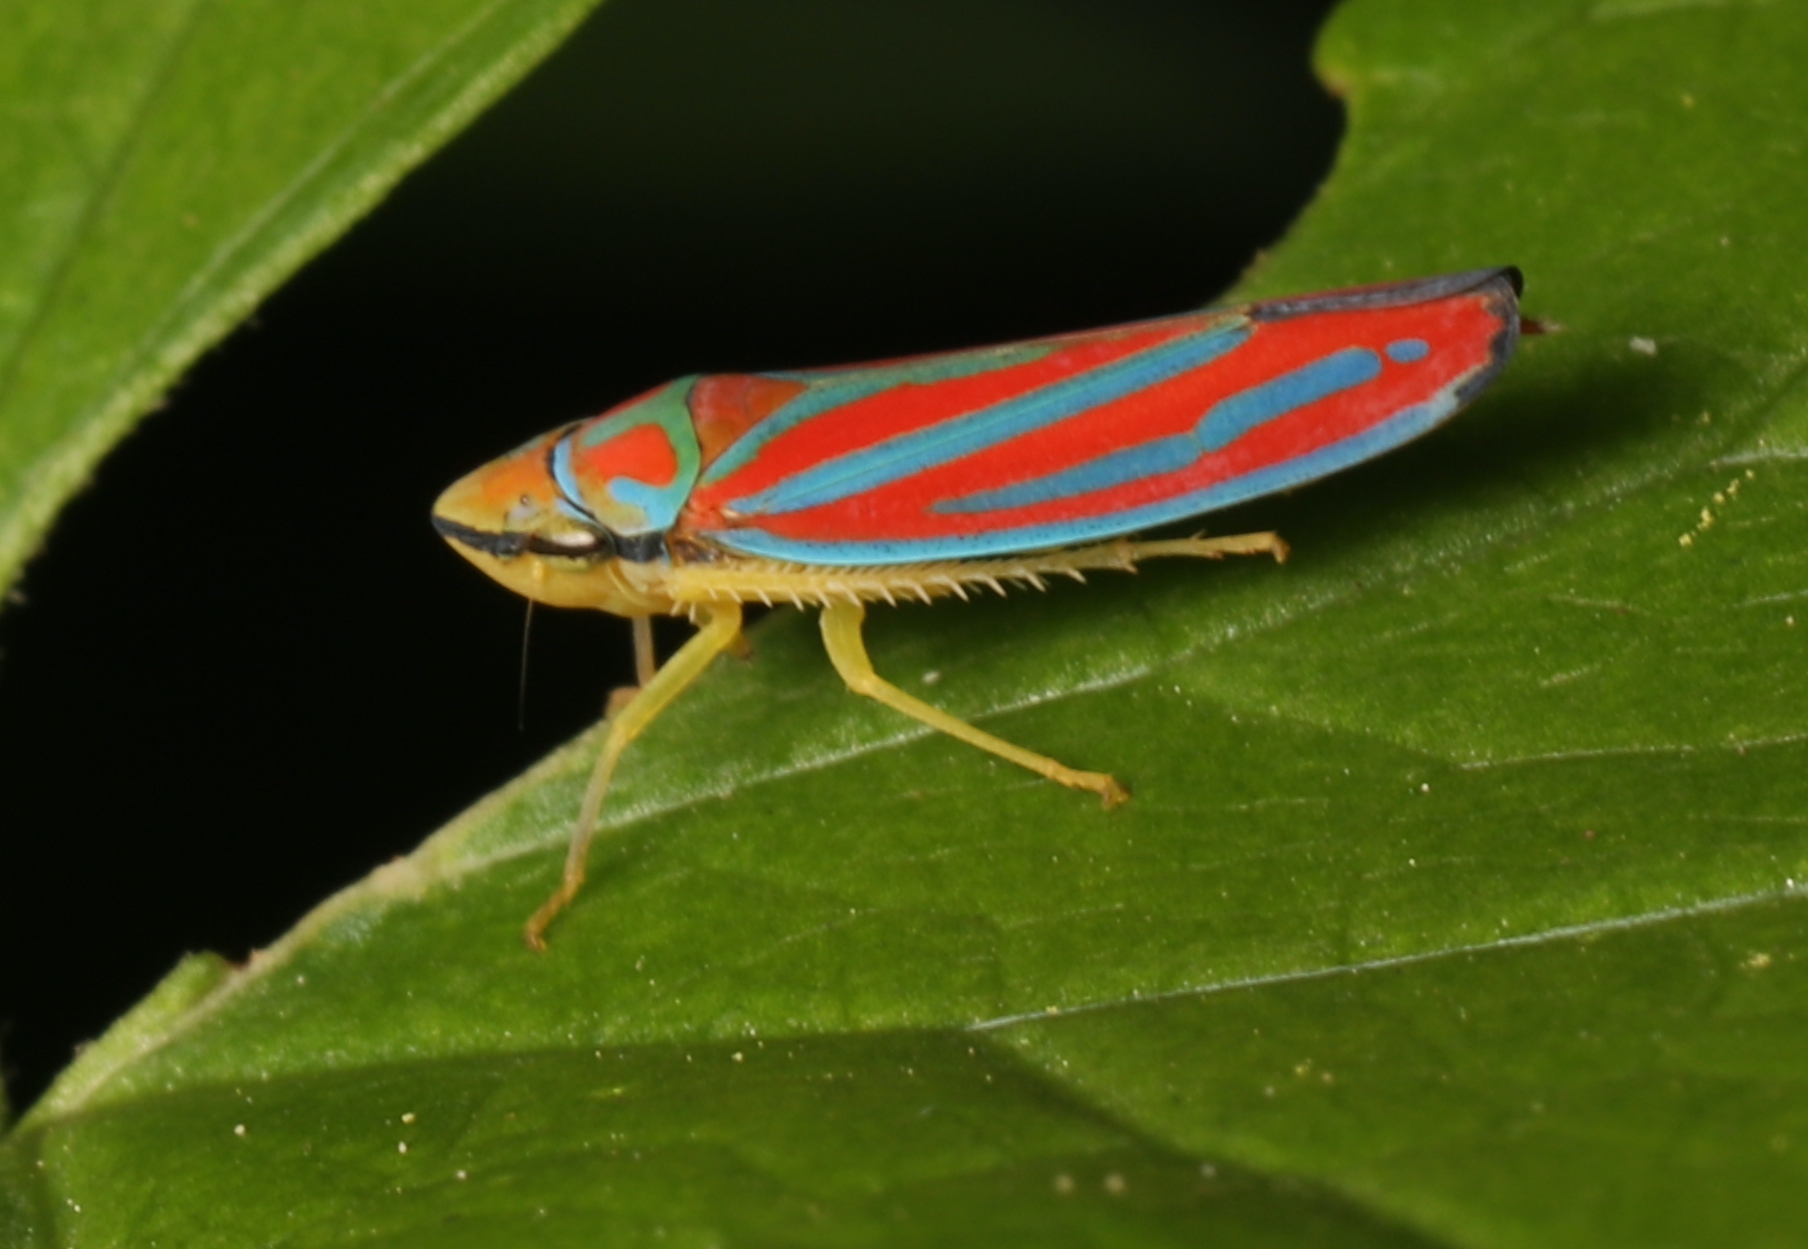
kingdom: Animalia
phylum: Arthropoda
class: Insecta
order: Hemiptera
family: Cicadellidae
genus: Graphocephala
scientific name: Graphocephala coccinea
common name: Candy-striped leafhopper
